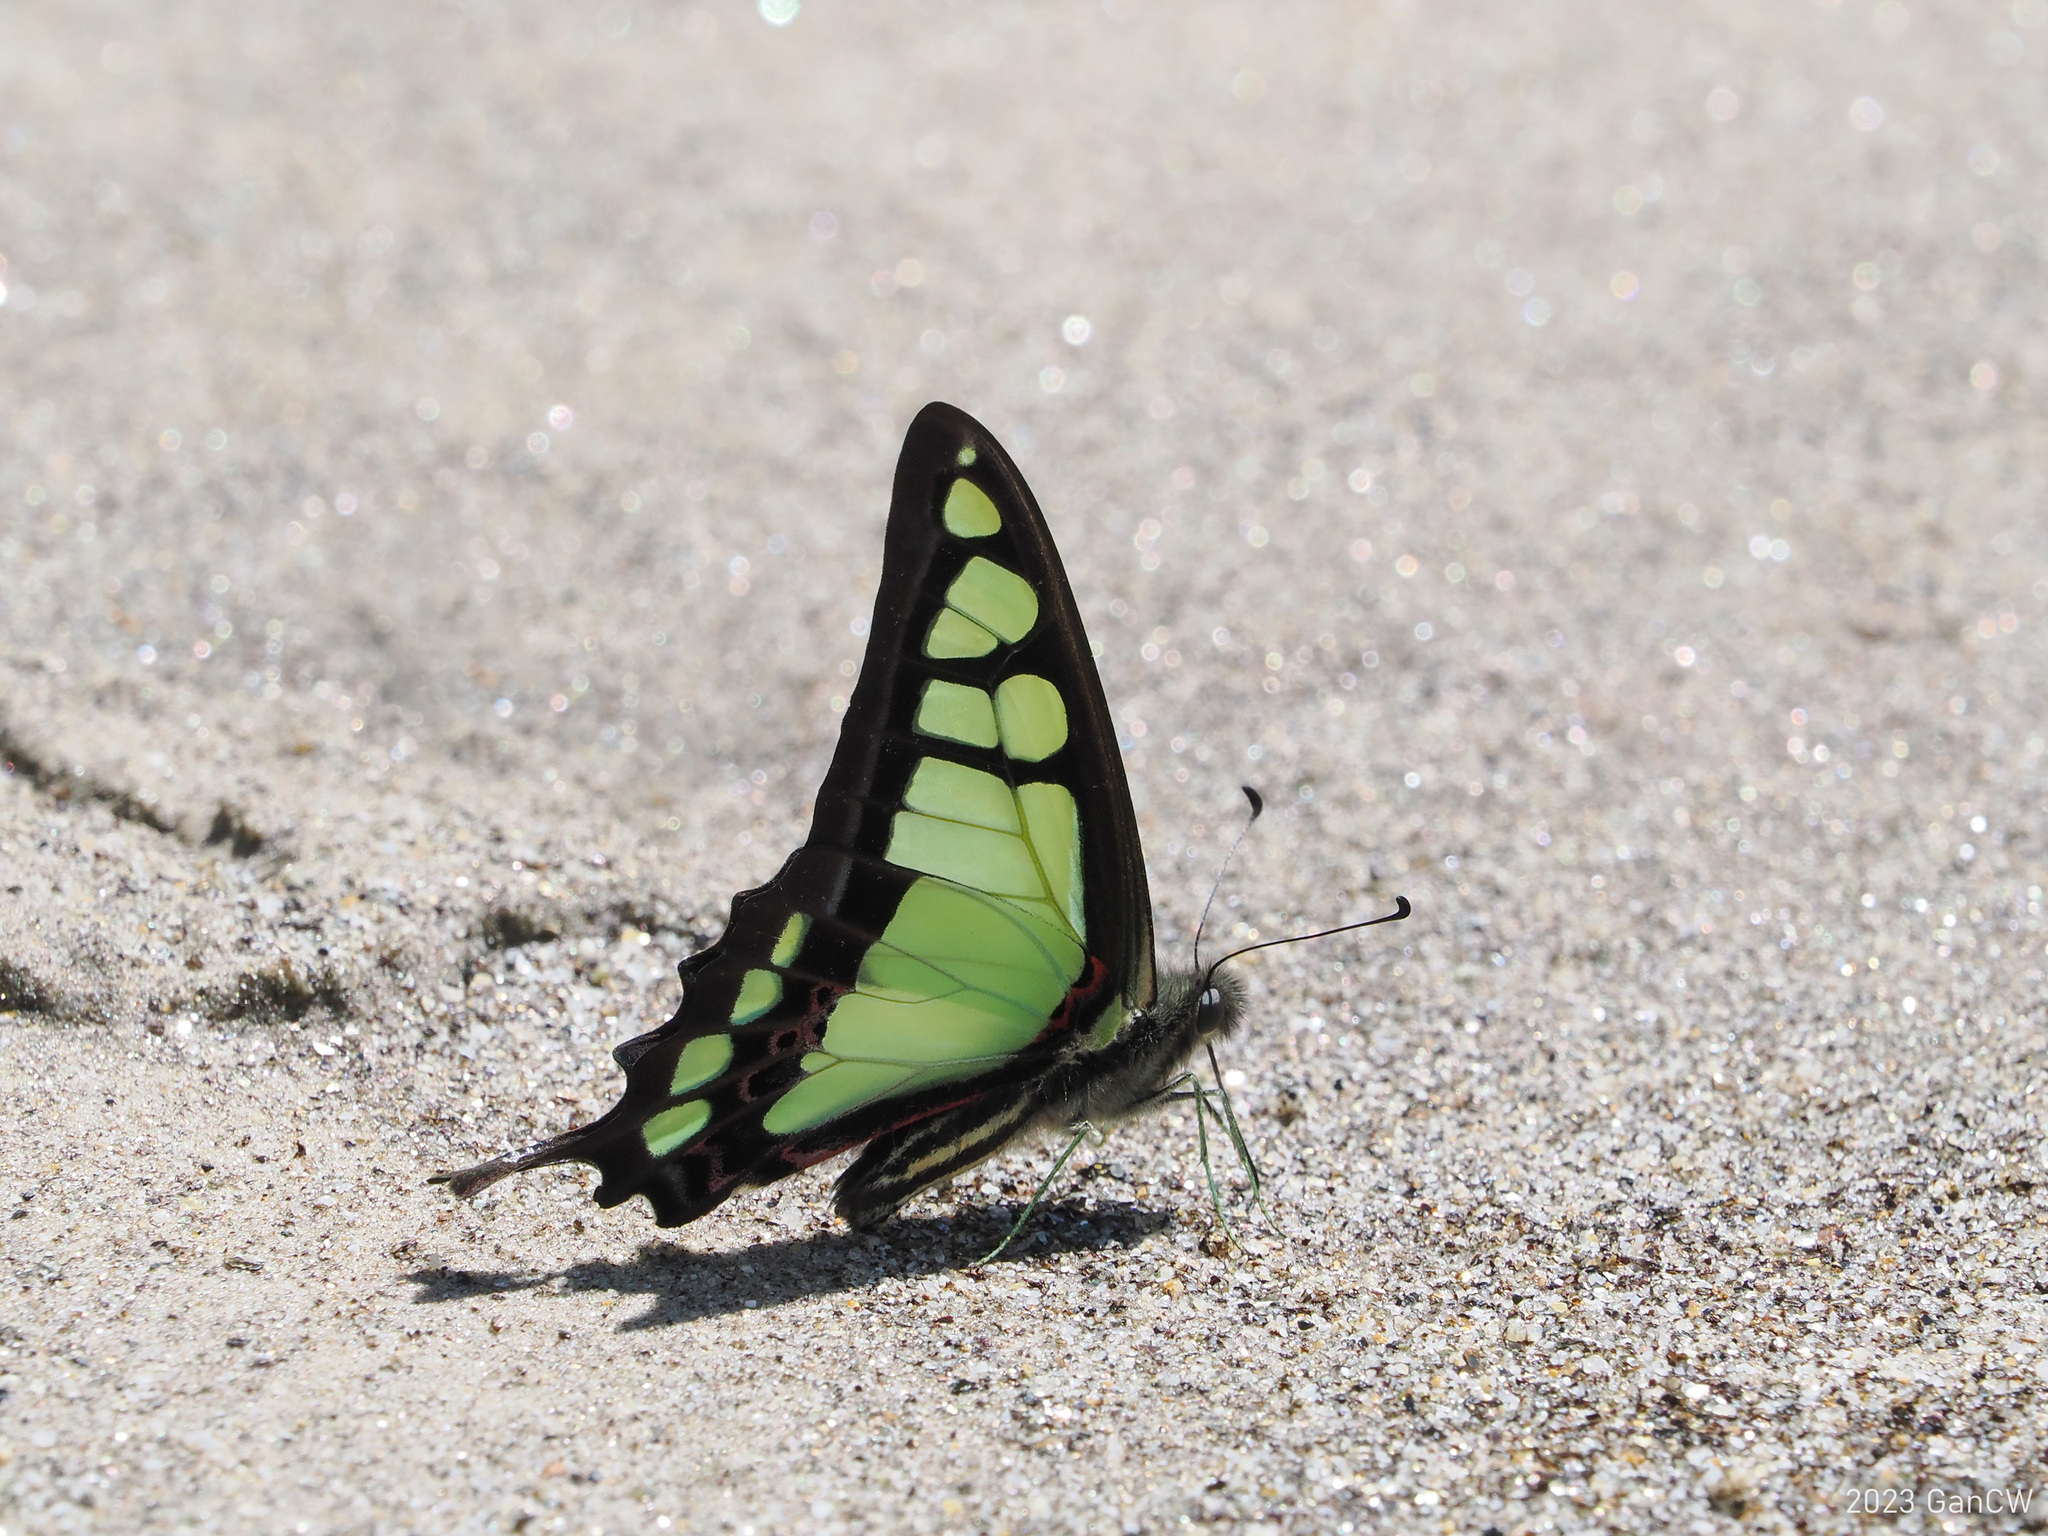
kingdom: Animalia
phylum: Arthropoda
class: Insecta
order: Lepidoptera
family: Papilionidae
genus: Graphium
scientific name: Graphium cloanthus
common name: Glassy bluebottle
